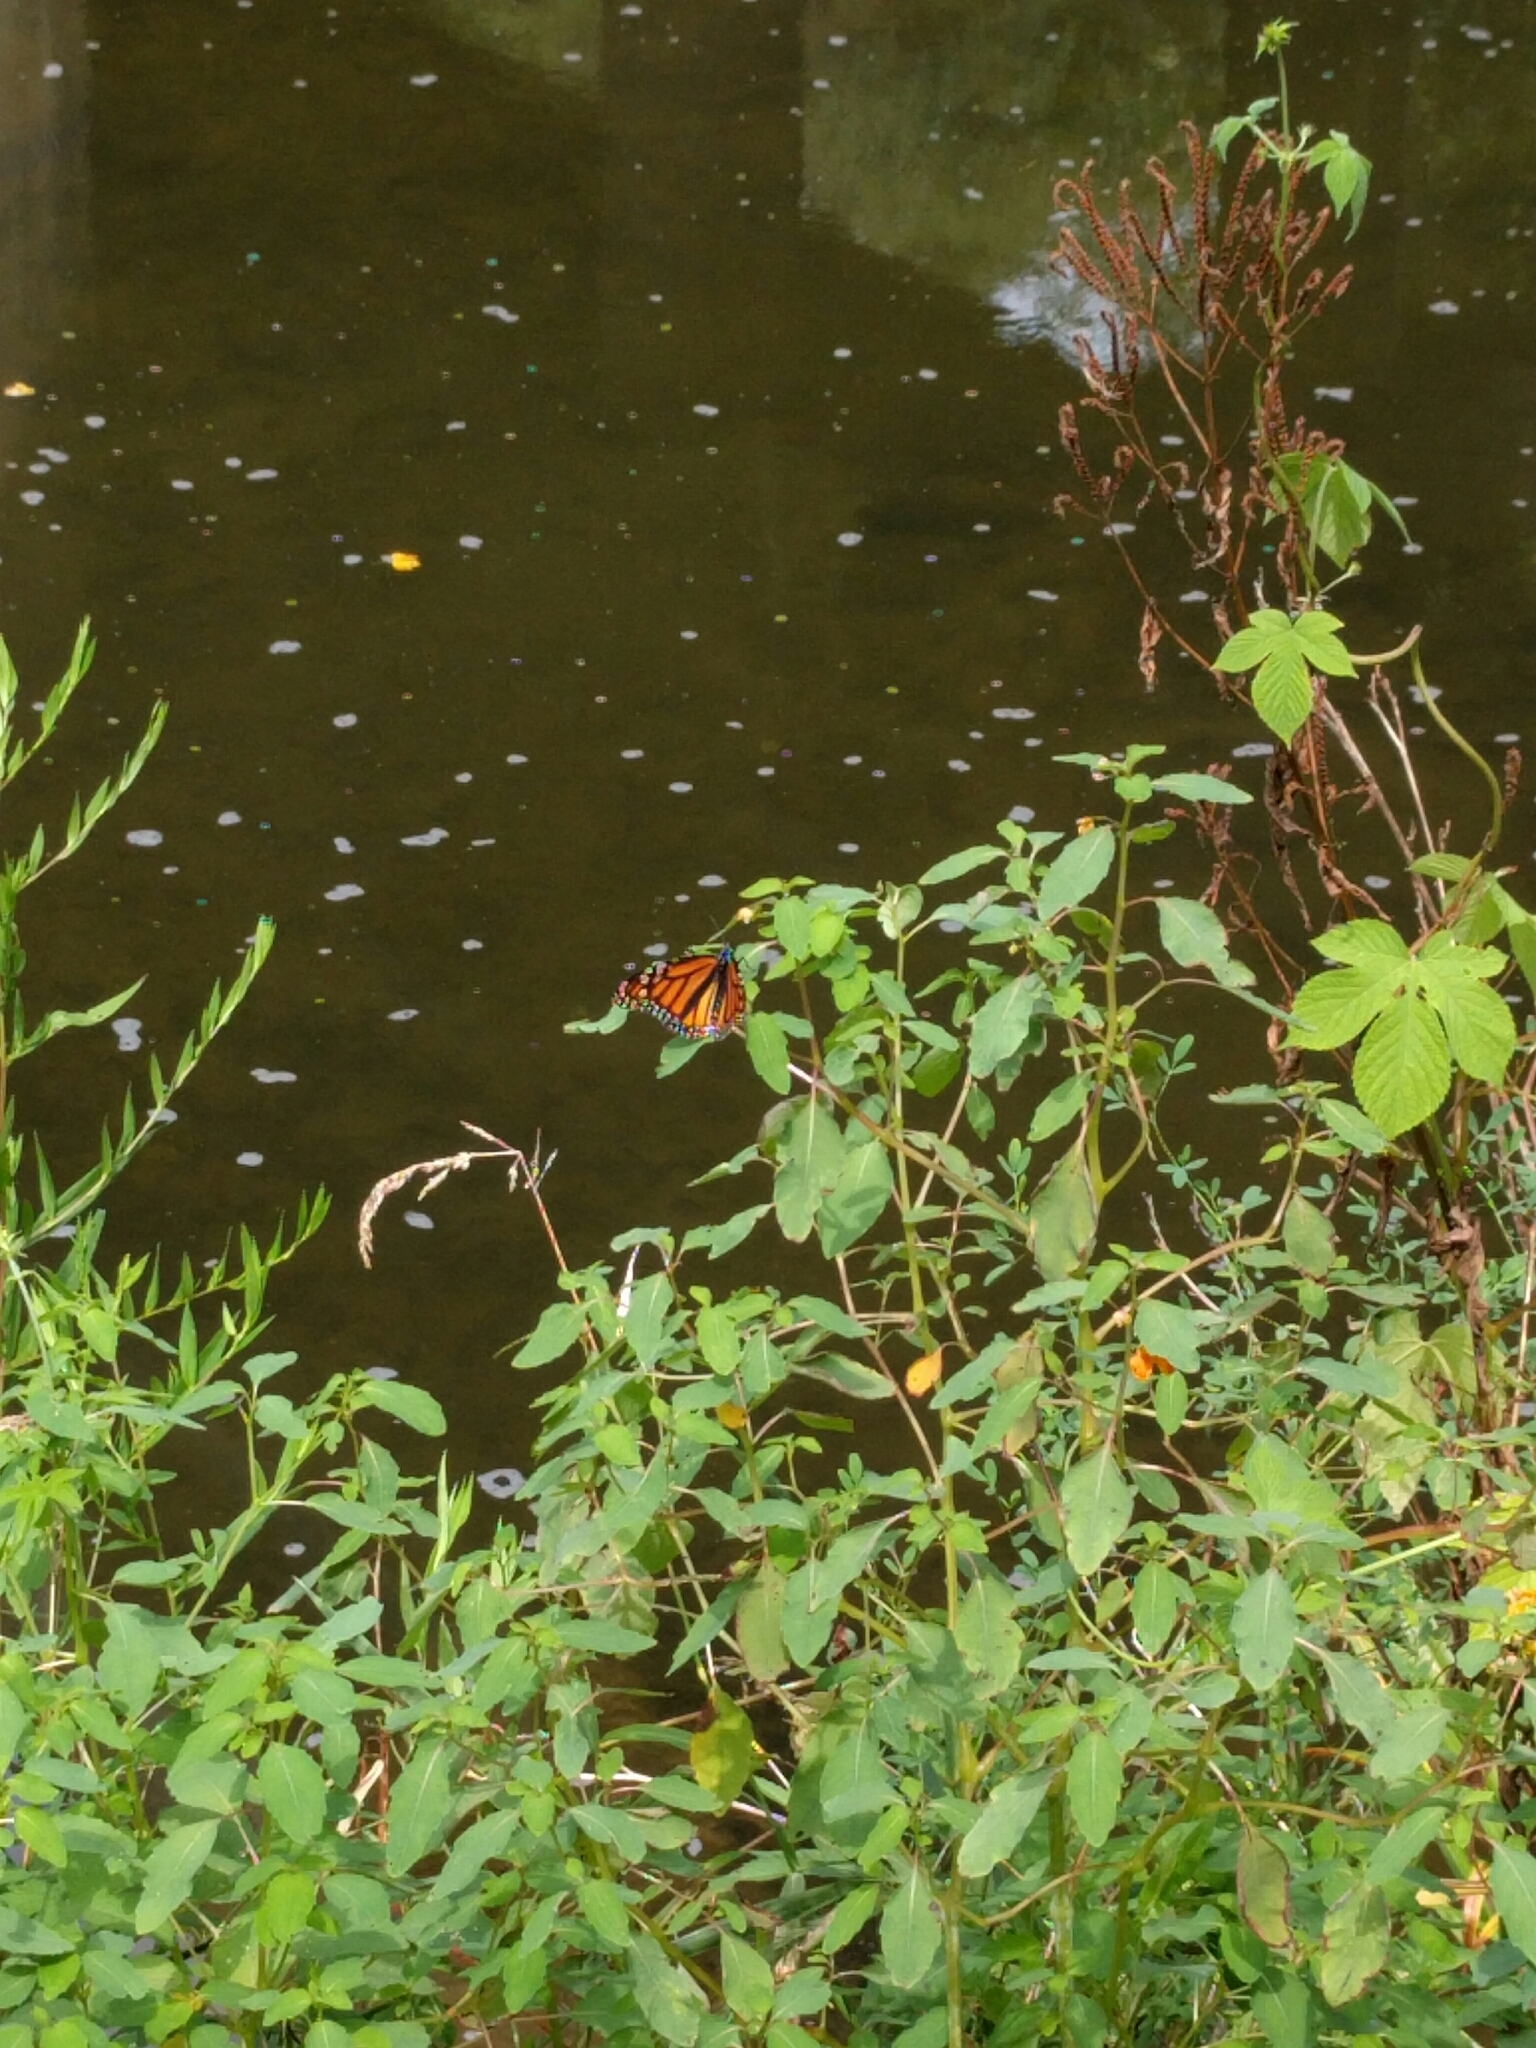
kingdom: Animalia
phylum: Arthropoda
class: Insecta
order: Lepidoptera
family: Nymphalidae
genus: Danaus
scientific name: Danaus plexippus
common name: Monarch
